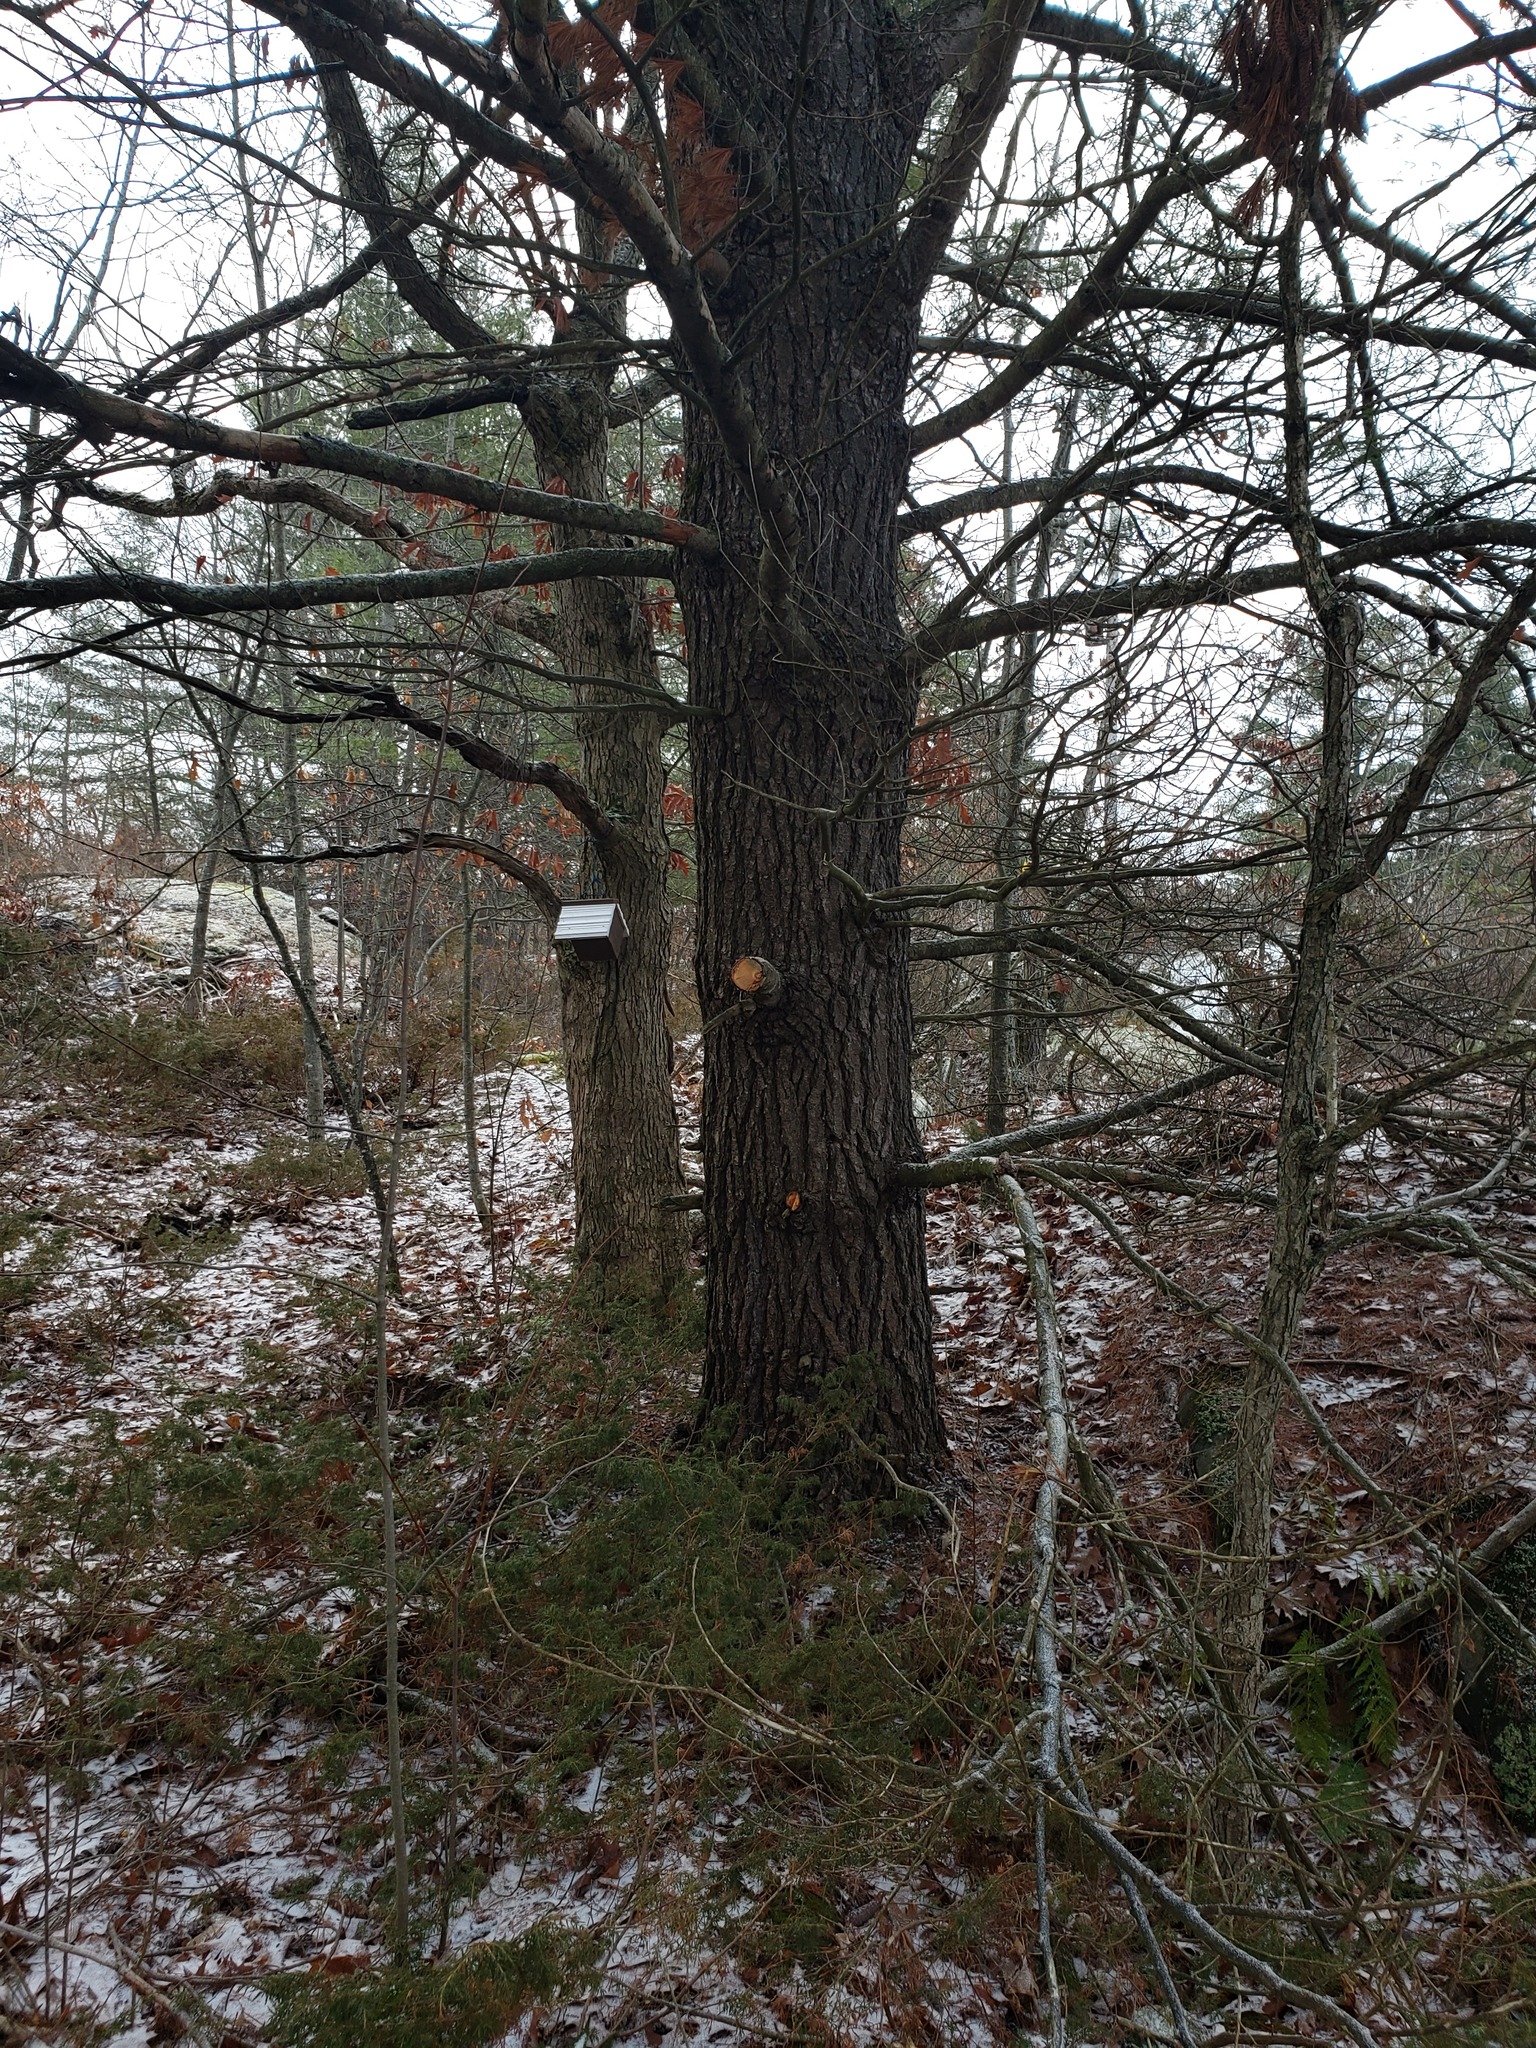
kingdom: Plantae
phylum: Tracheophyta
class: Pinopsida
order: Pinales
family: Pinaceae
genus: Pinus
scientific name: Pinus strobus
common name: Weymouth pine
